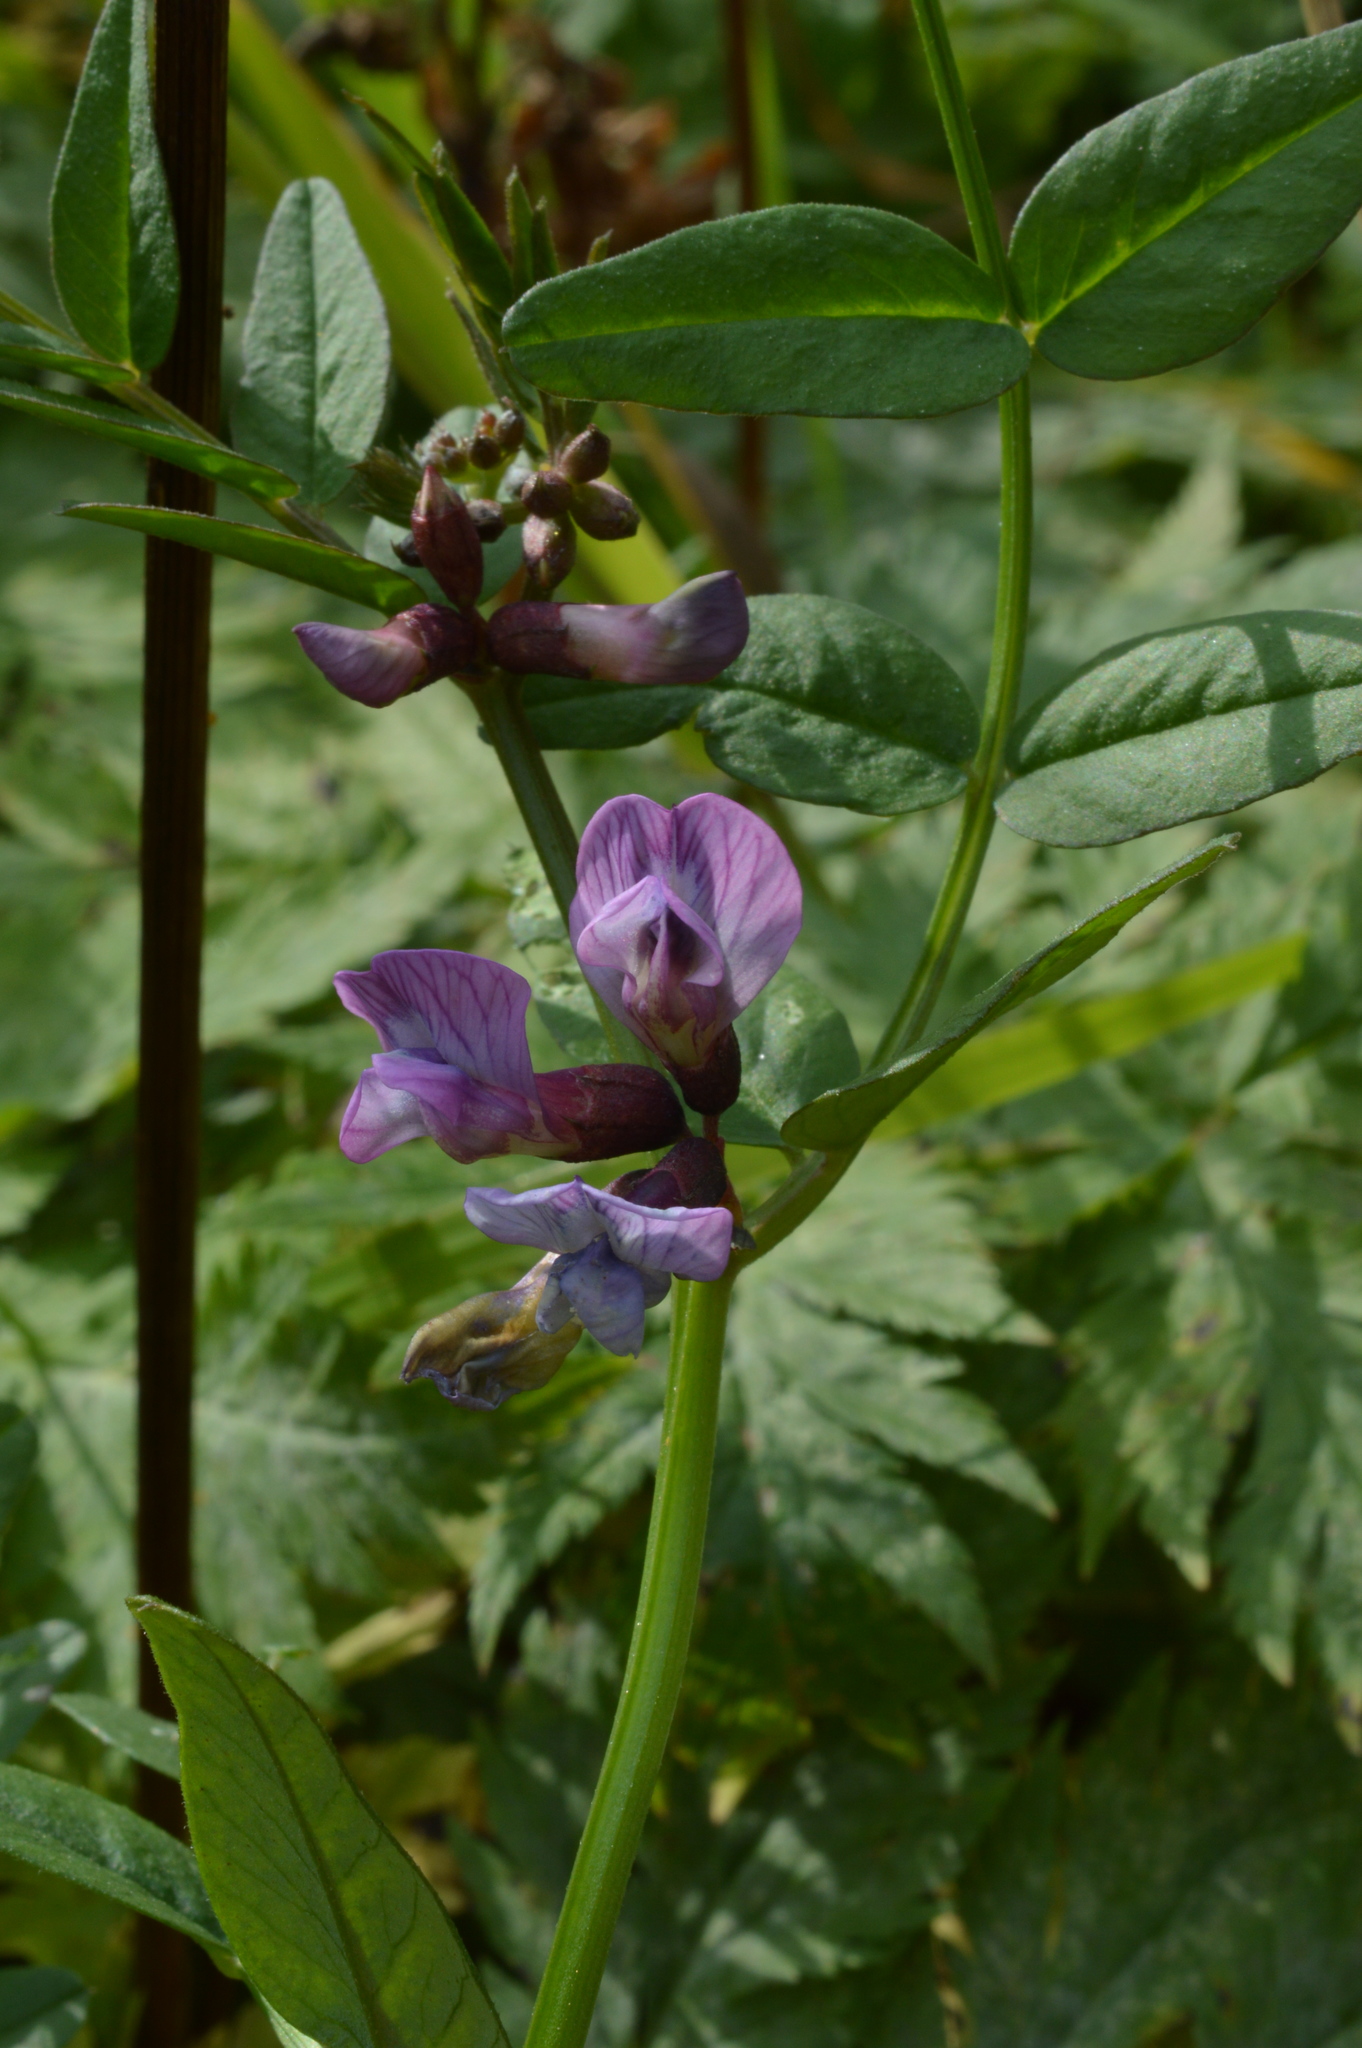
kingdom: Plantae
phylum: Tracheophyta
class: Magnoliopsida
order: Fabales
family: Fabaceae
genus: Vicia
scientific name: Vicia sepium
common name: Bush vetch
